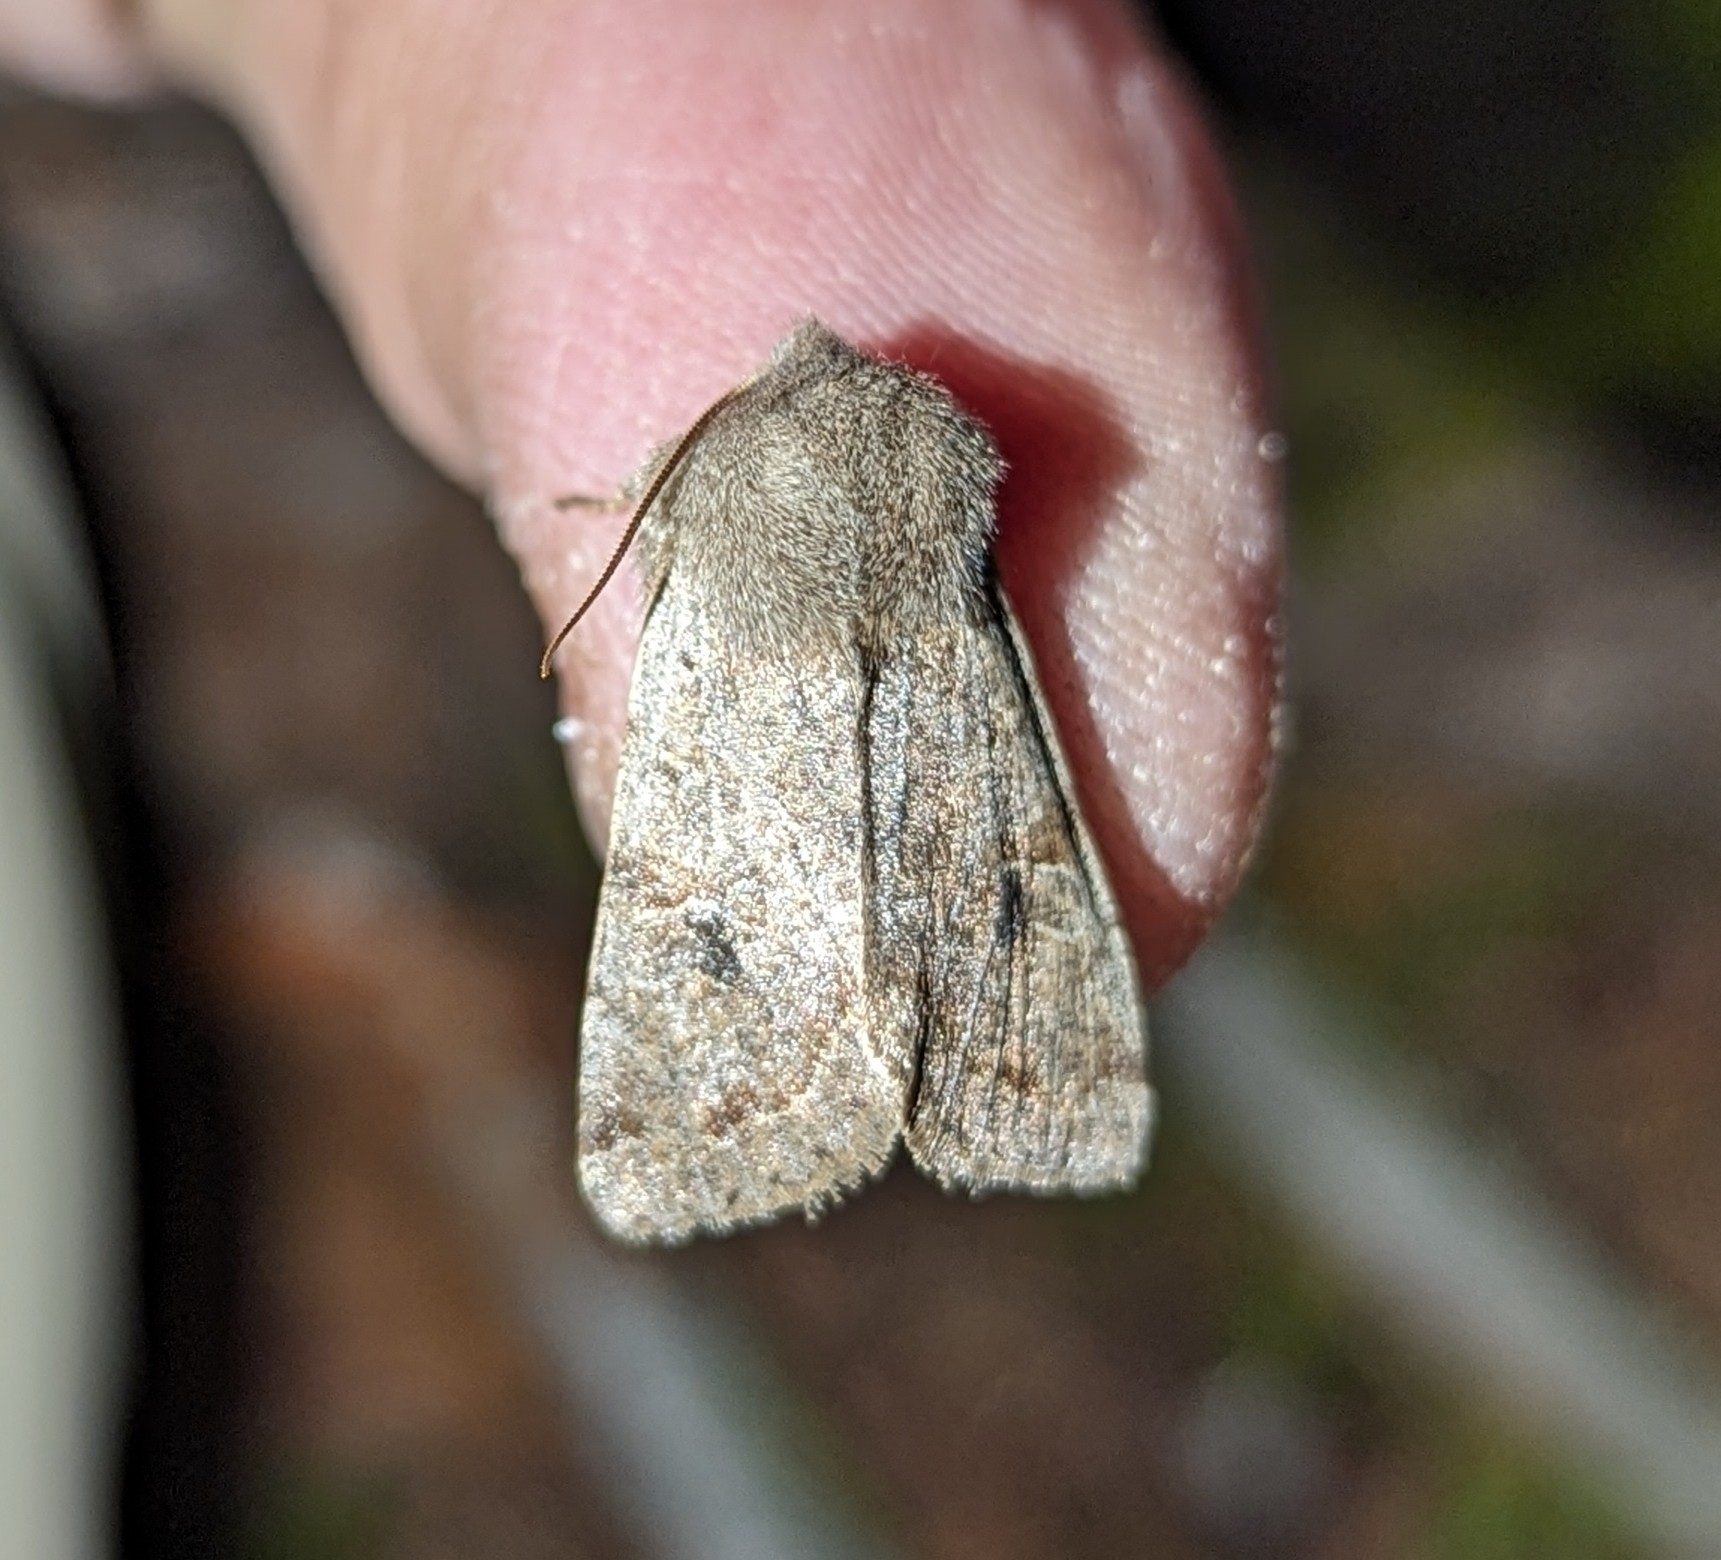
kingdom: Animalia
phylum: Arthropoda
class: Insecta
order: Lepidoptera
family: Noctuidae
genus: Orthosia
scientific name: Orthosia hibisci
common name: Green fruitworm
